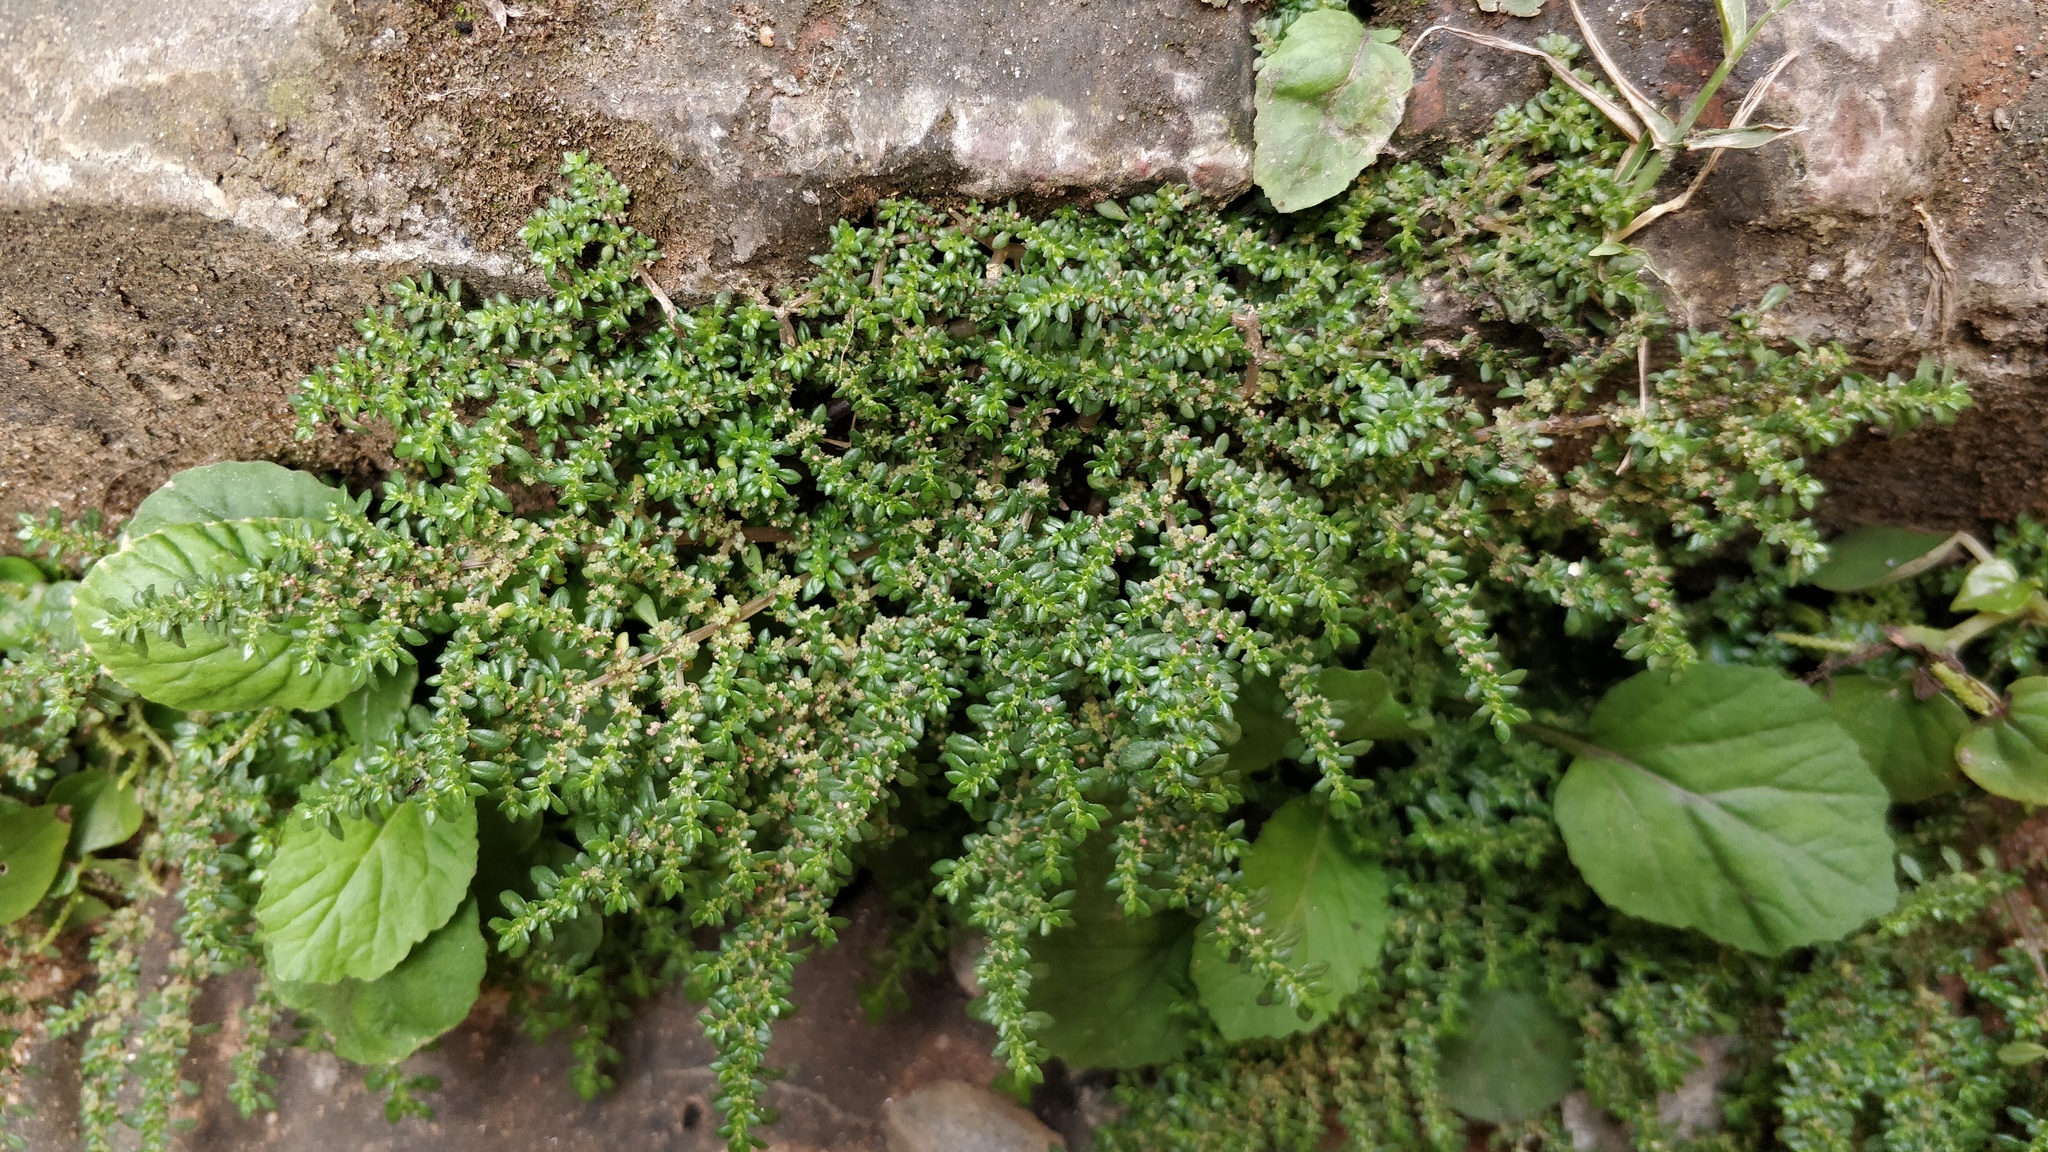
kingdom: Plantae
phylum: Tracheophyta
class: Magnoliopsida
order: Rosales
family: Urticaceae
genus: Pilea
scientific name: Pilea microphylla
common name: Artillery-plant
